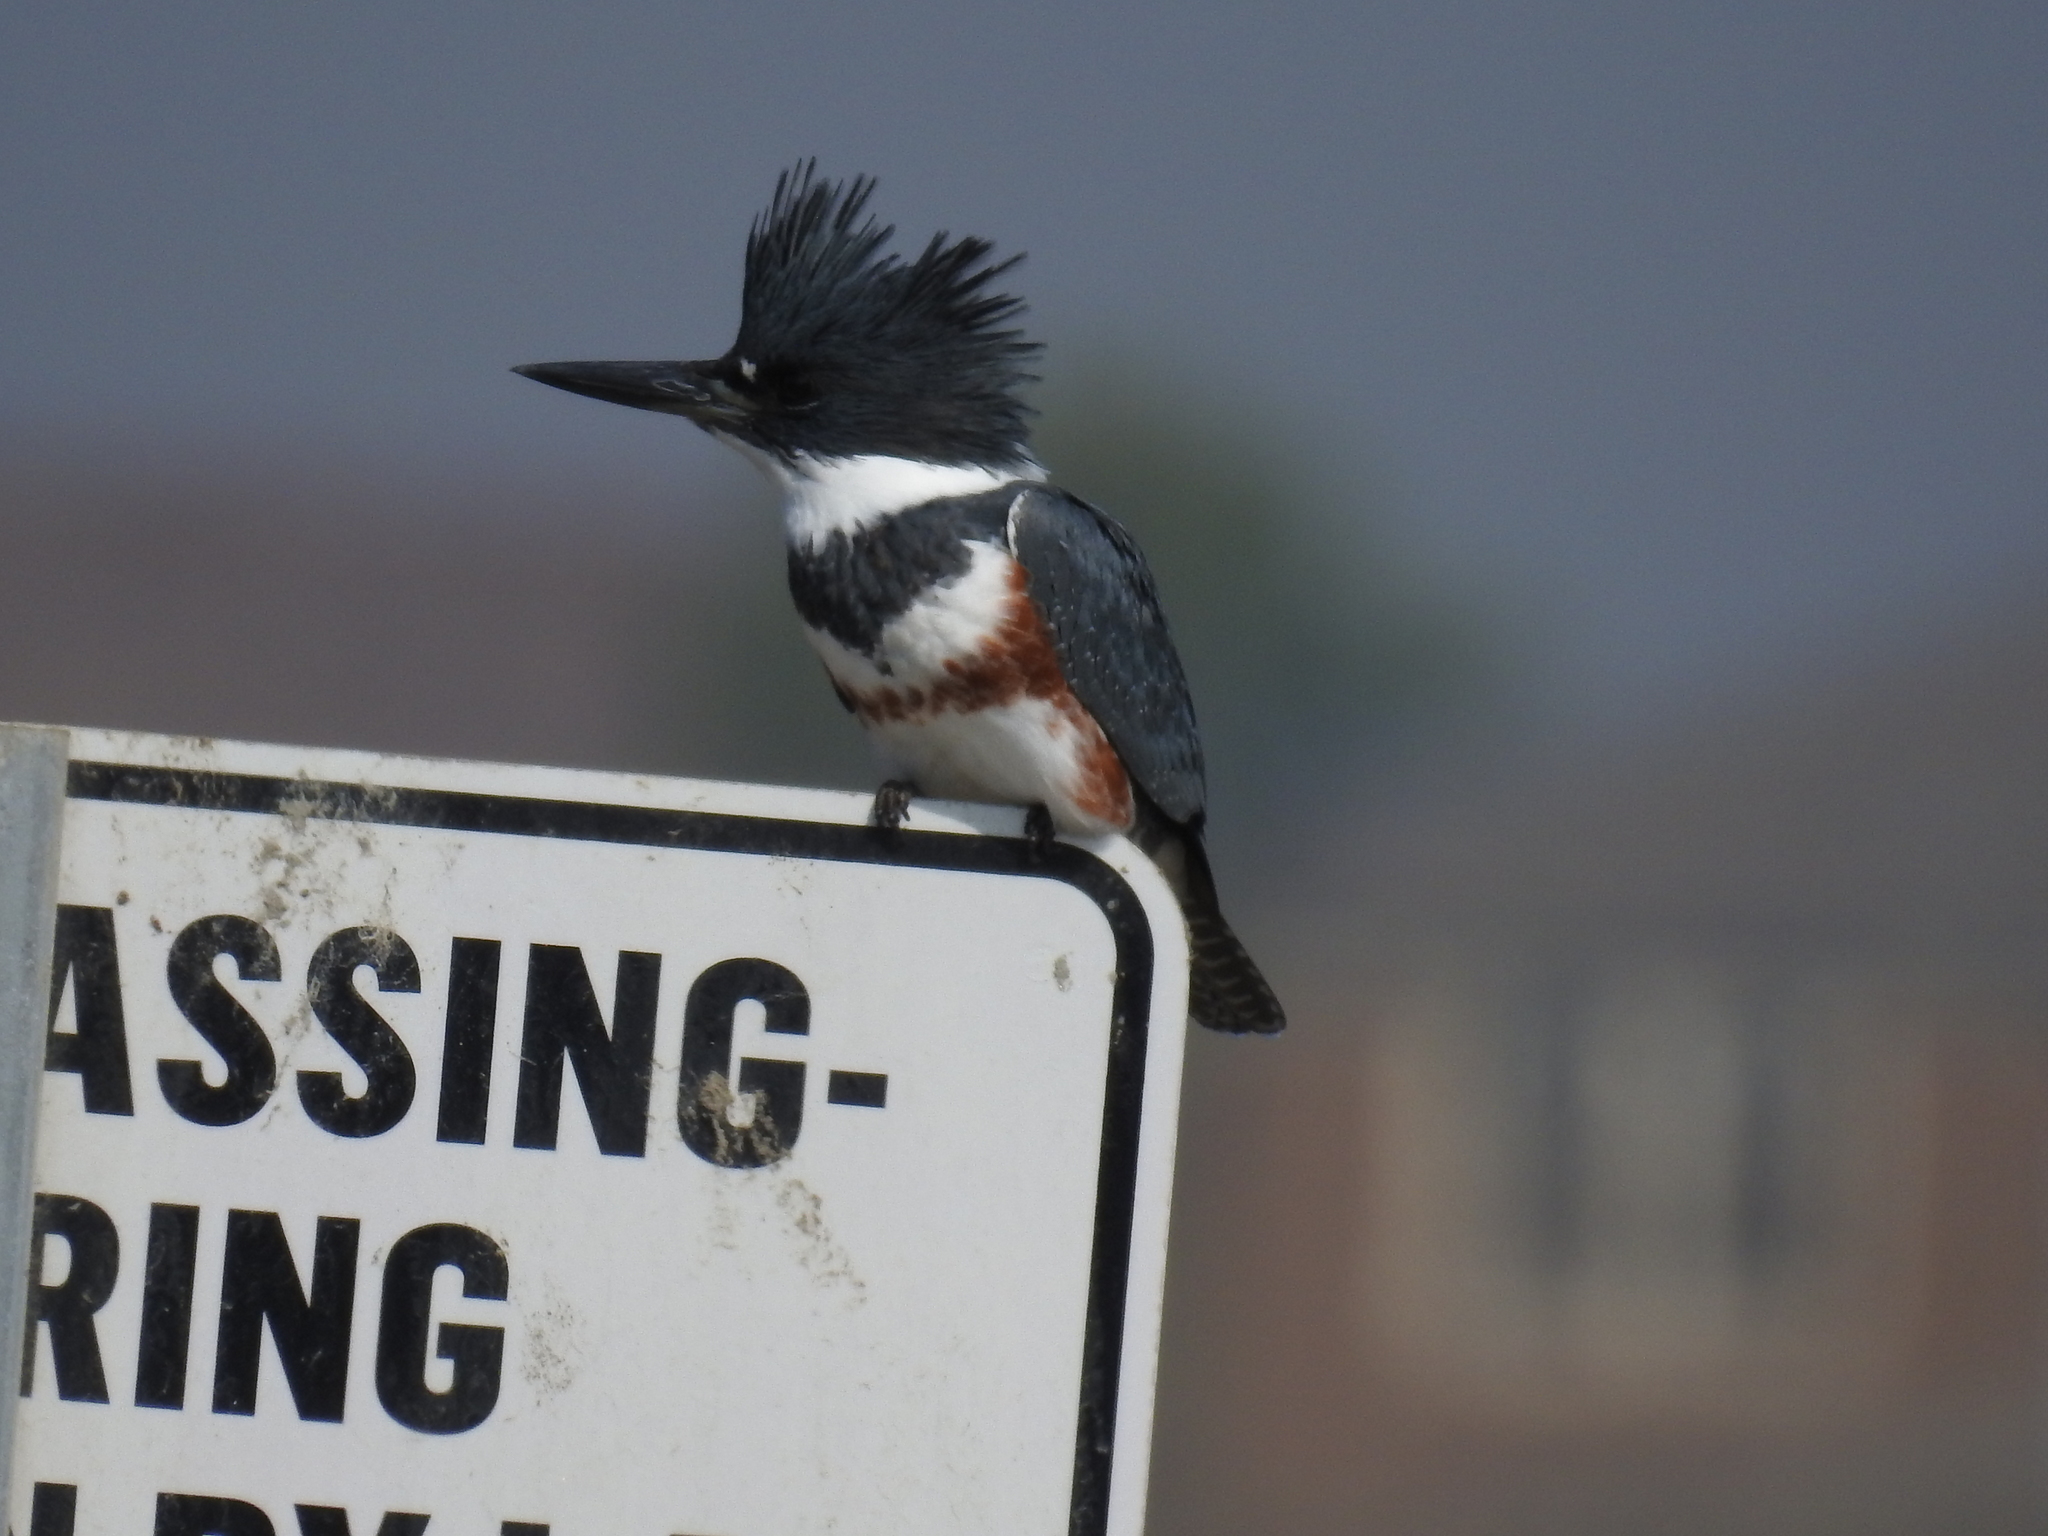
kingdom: Animalia
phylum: Chordata
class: Aves
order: Coraciiformes
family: Alcedinidae
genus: Megaceryle
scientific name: Megaceryle alcyon
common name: Belted kingfisher
